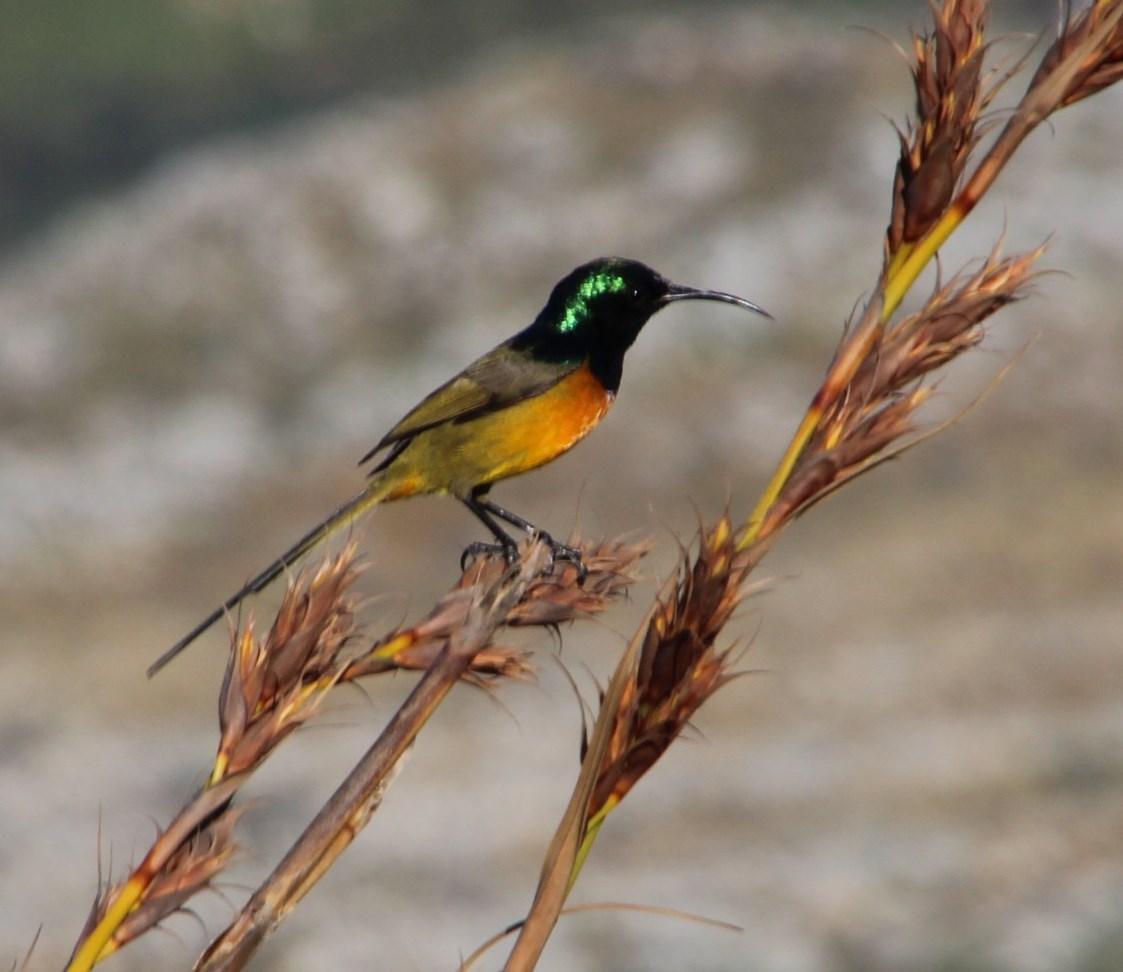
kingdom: Plantae
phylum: Tracheophyta
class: Liliopsida
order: Poales
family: Cyperaceae
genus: Tetraria
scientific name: Tetraria thermalis
